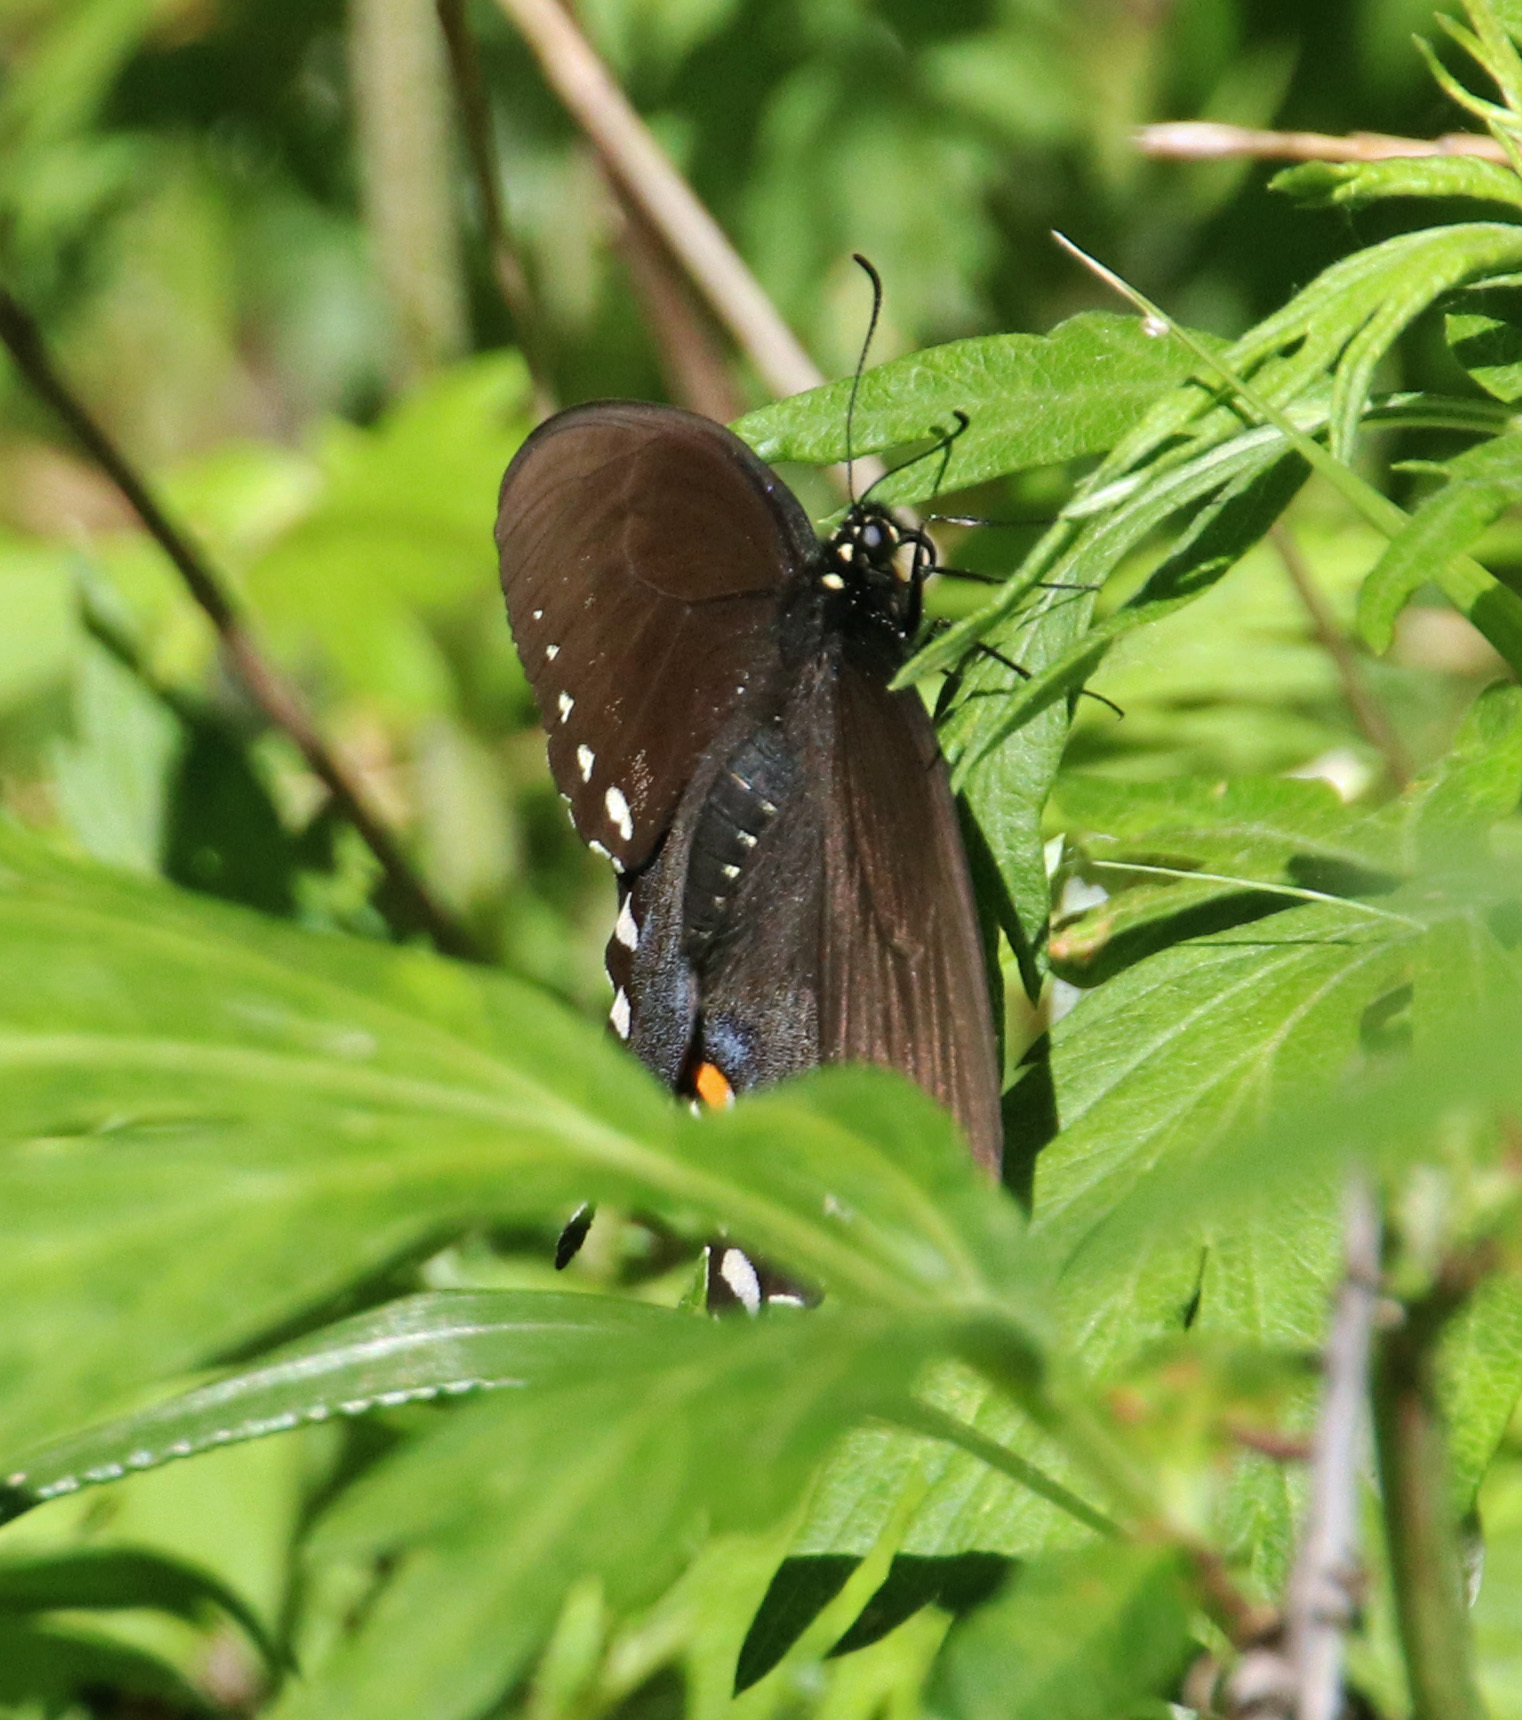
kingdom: Animalia
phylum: Arthropoda
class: Insecta
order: Lepidoptera
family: Papilionidae
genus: Papilio
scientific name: Papilio troilus
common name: Spicebush swallowtail
